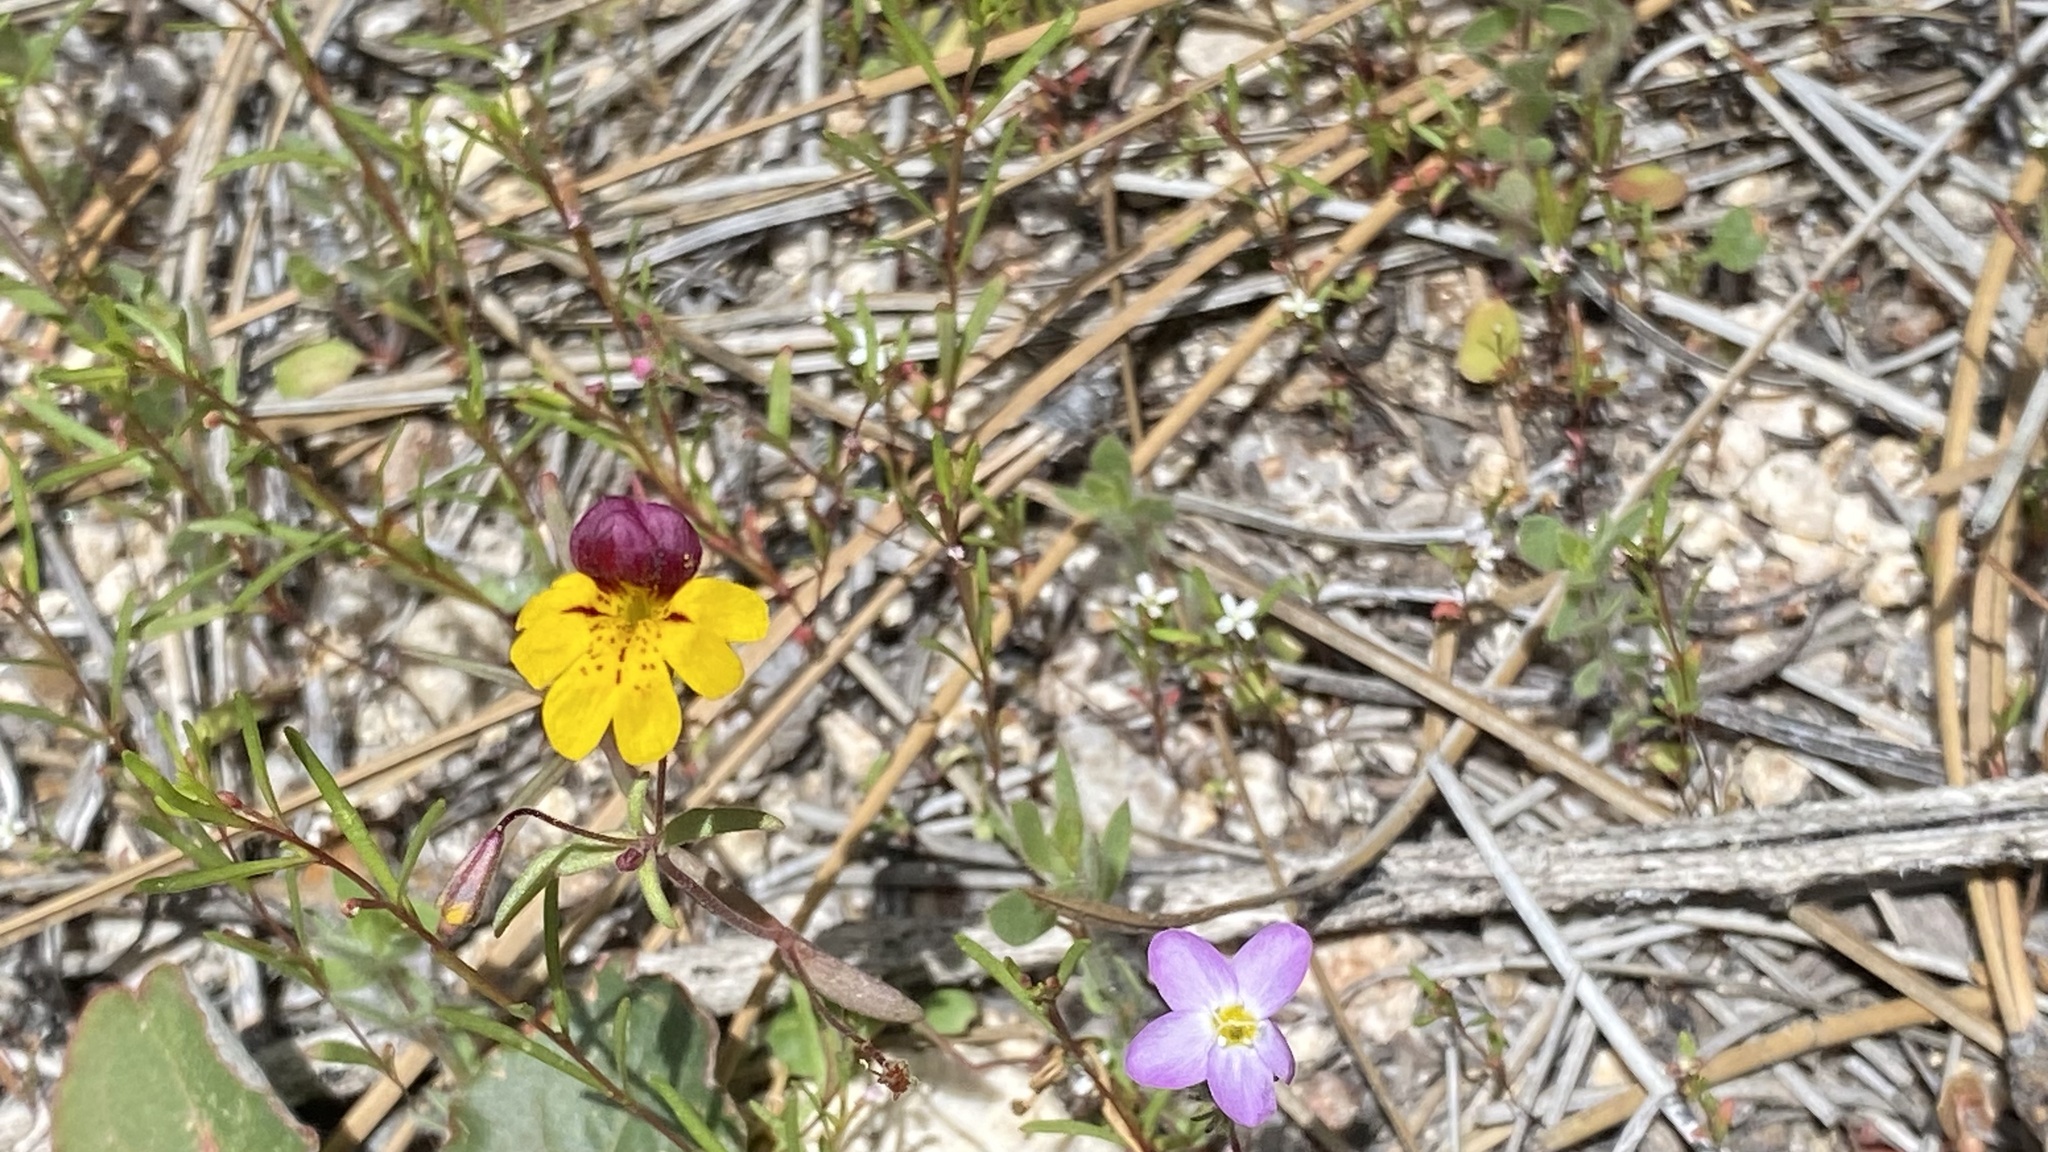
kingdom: Plantae
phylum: Tracheophyta
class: Magnoliopsida
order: Lamiales
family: Phrymaceae
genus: Erythranthe
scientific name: Erythranthe barbata
